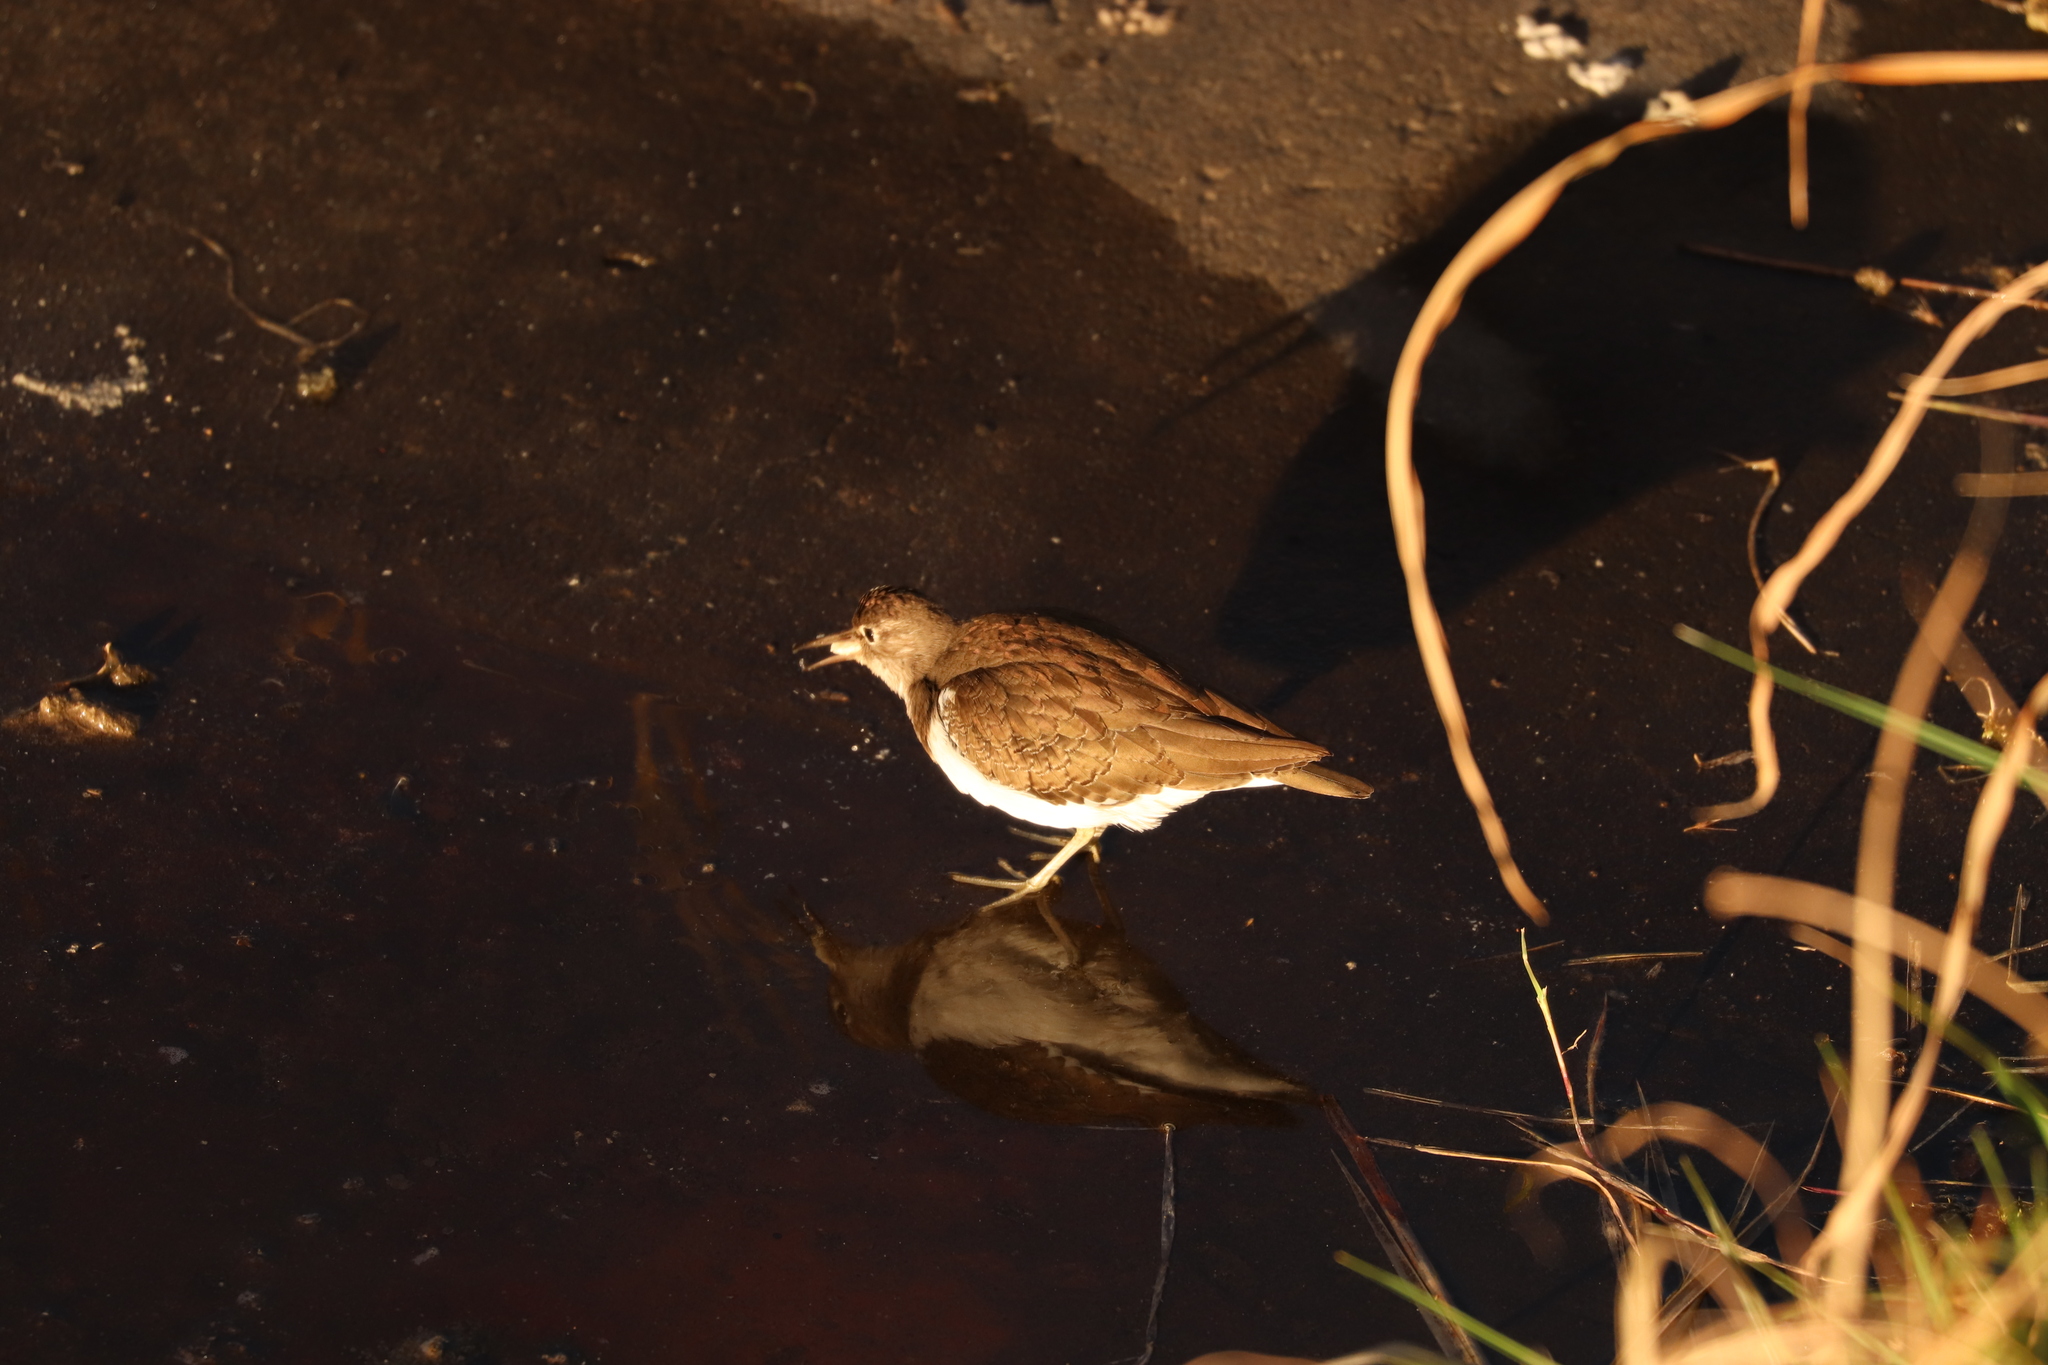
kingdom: Animalia
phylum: Chordata
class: Aves
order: Charadriiformes
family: Scolopacidae
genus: Actitis
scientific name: Actitis hypoleucos
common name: Common sandpiper
